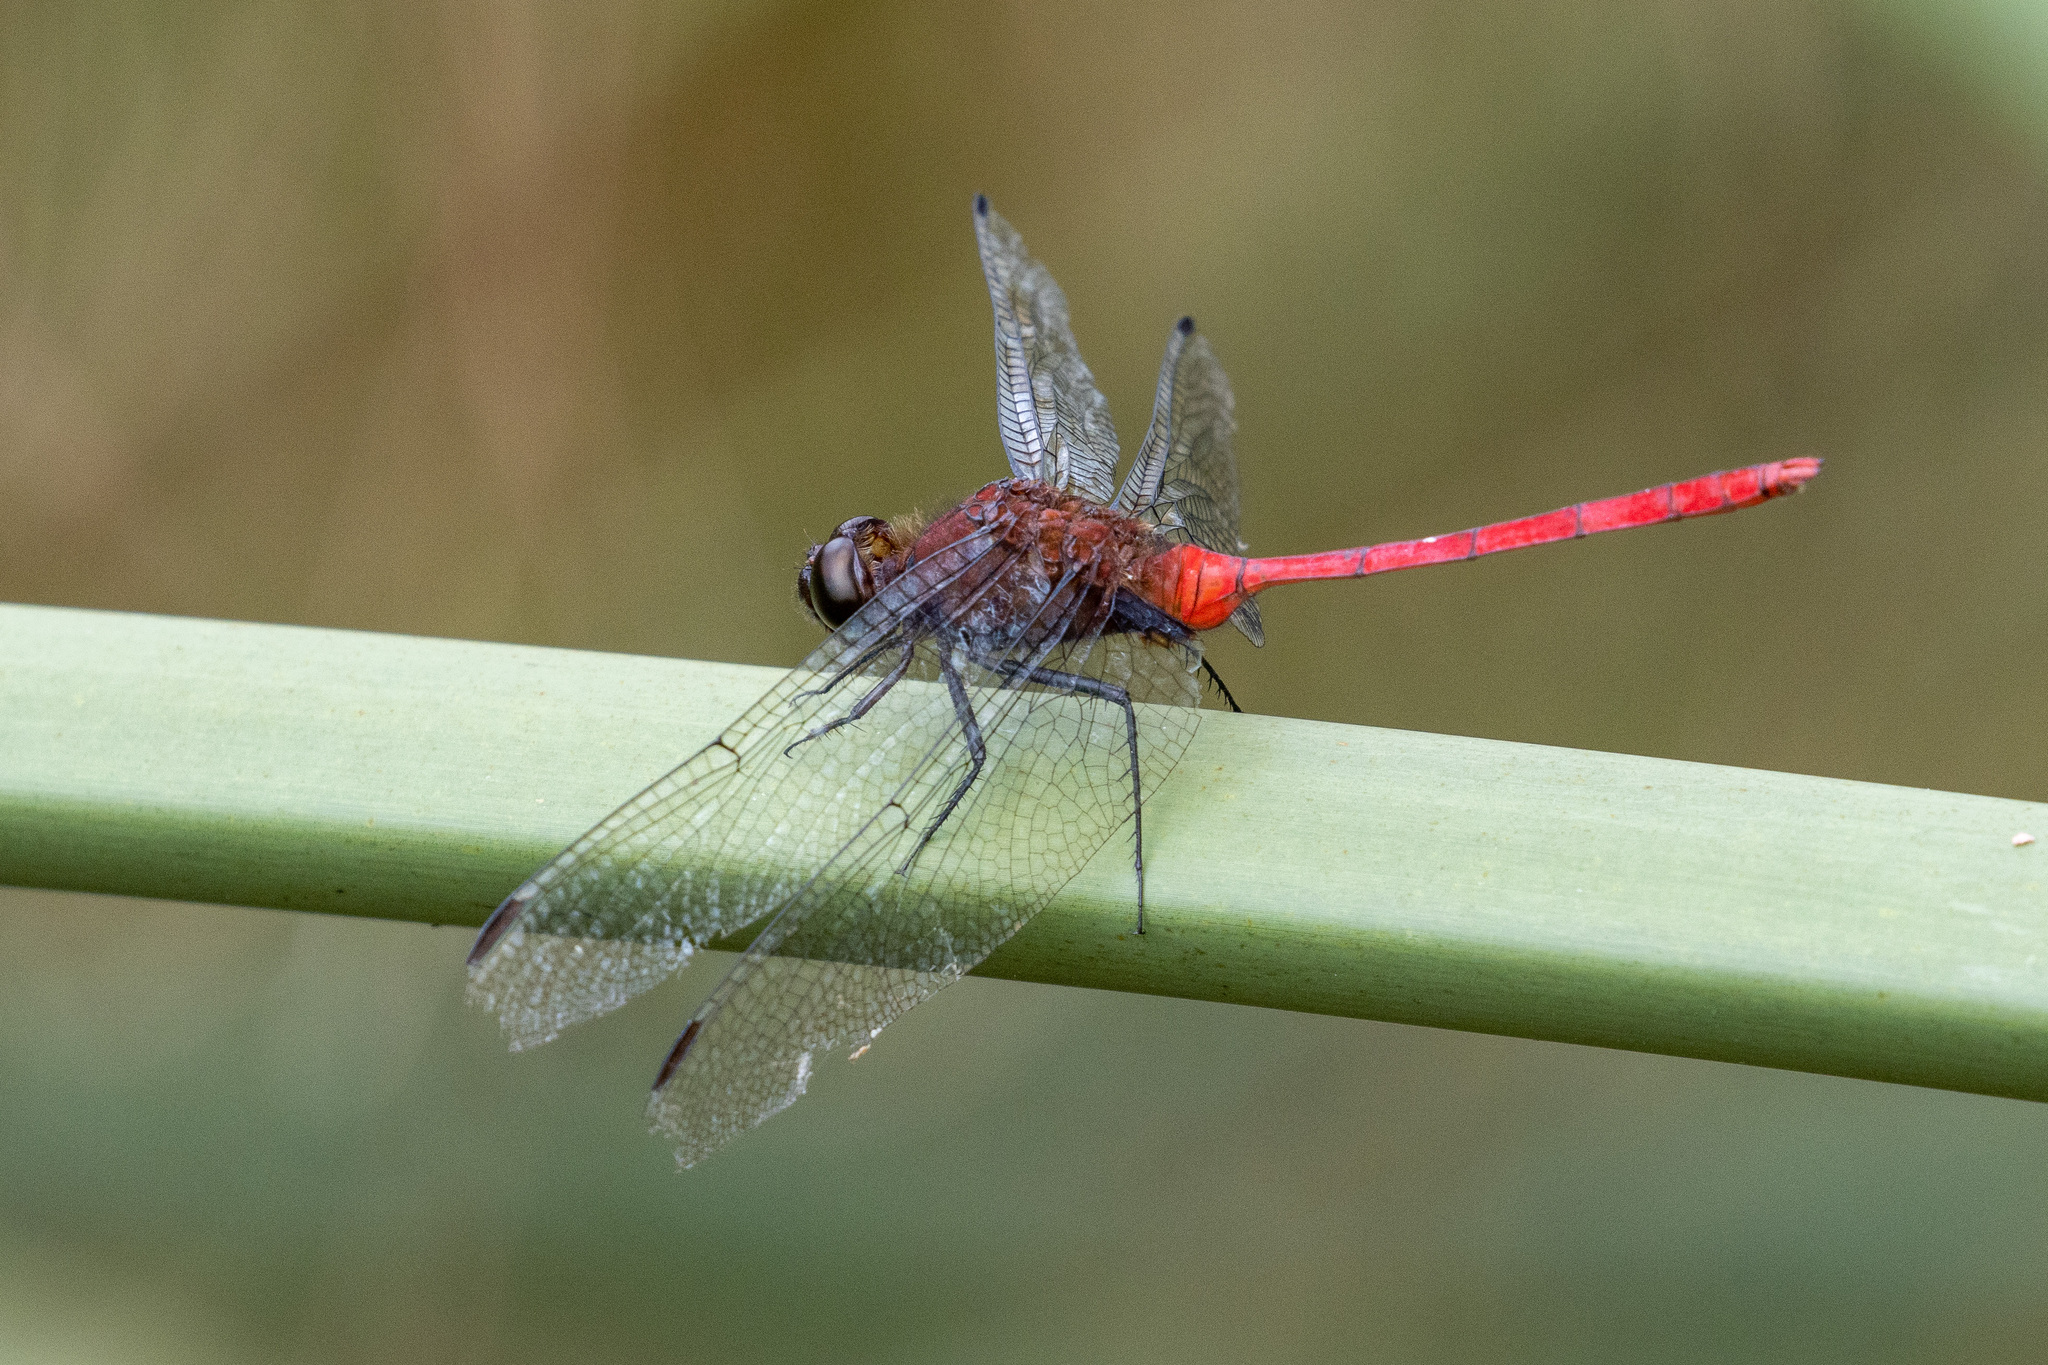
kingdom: Animalia
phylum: Arthropoda
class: Insecta
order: Odonata
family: Libellulidae
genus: Erythemis
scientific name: Erythemis haematogastra
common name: Red pondhawk
